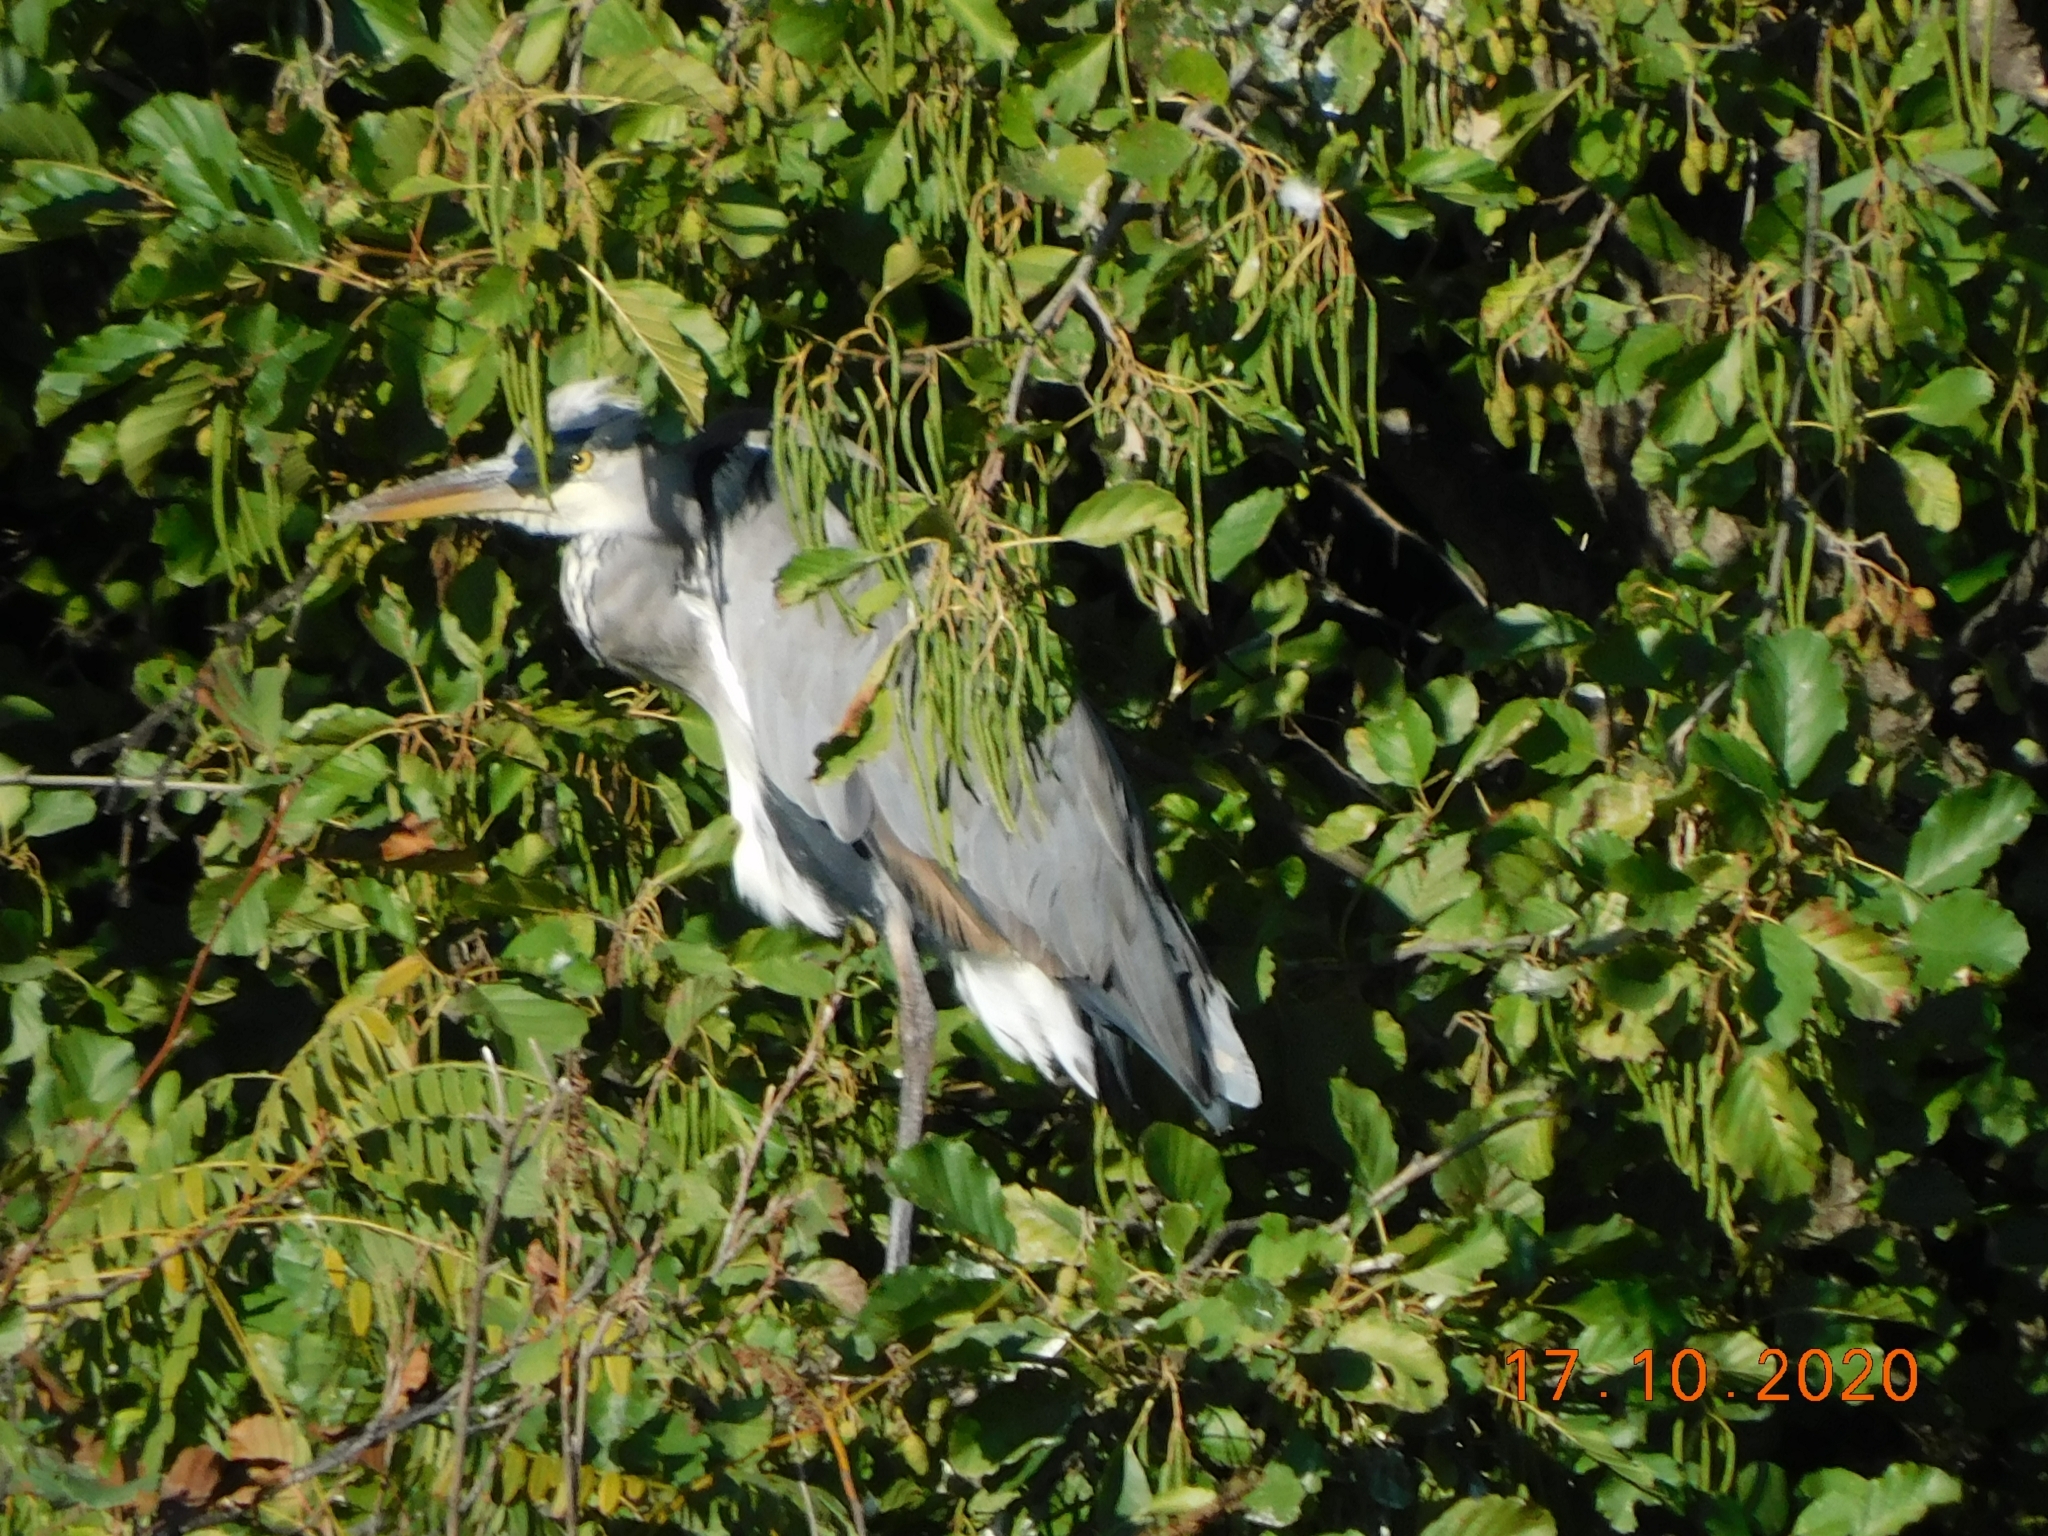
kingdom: Animalia
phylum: Chordata
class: Aves
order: Pelecaniformes
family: Ardeidae
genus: Ardea
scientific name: Ardea cinerea
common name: Grey heron
